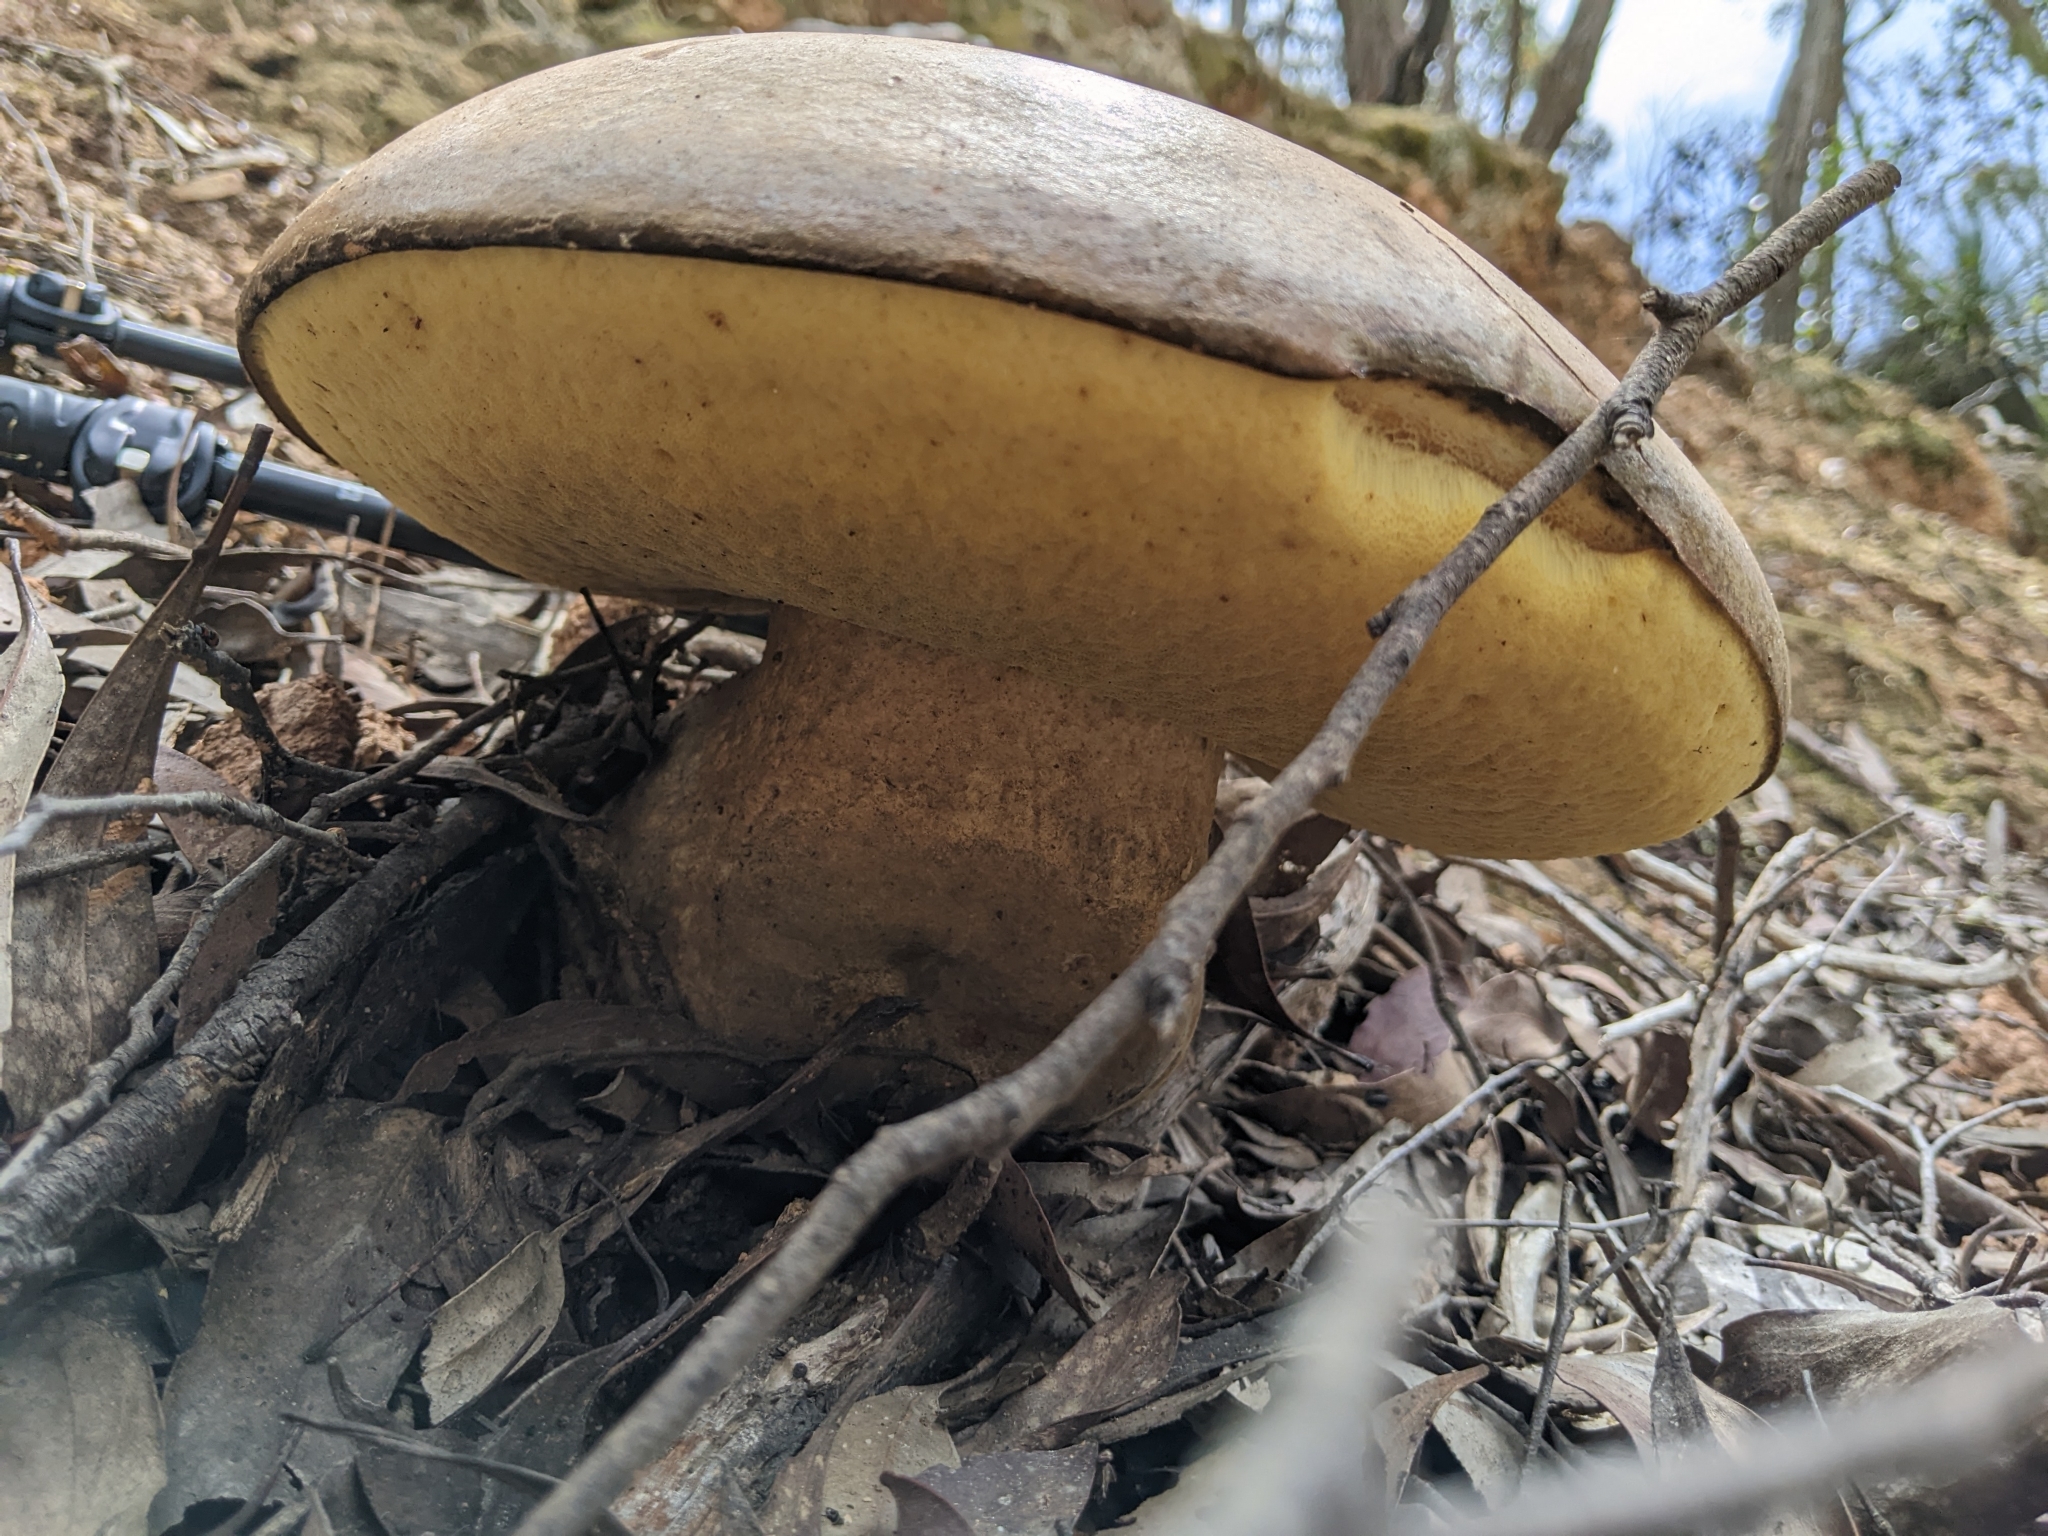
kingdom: Fungi
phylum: Basidiomycota
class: Agaricomycetes
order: Boletales
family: Boletinellaceae
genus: Phlebopus
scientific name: Phlebopus marginatus
